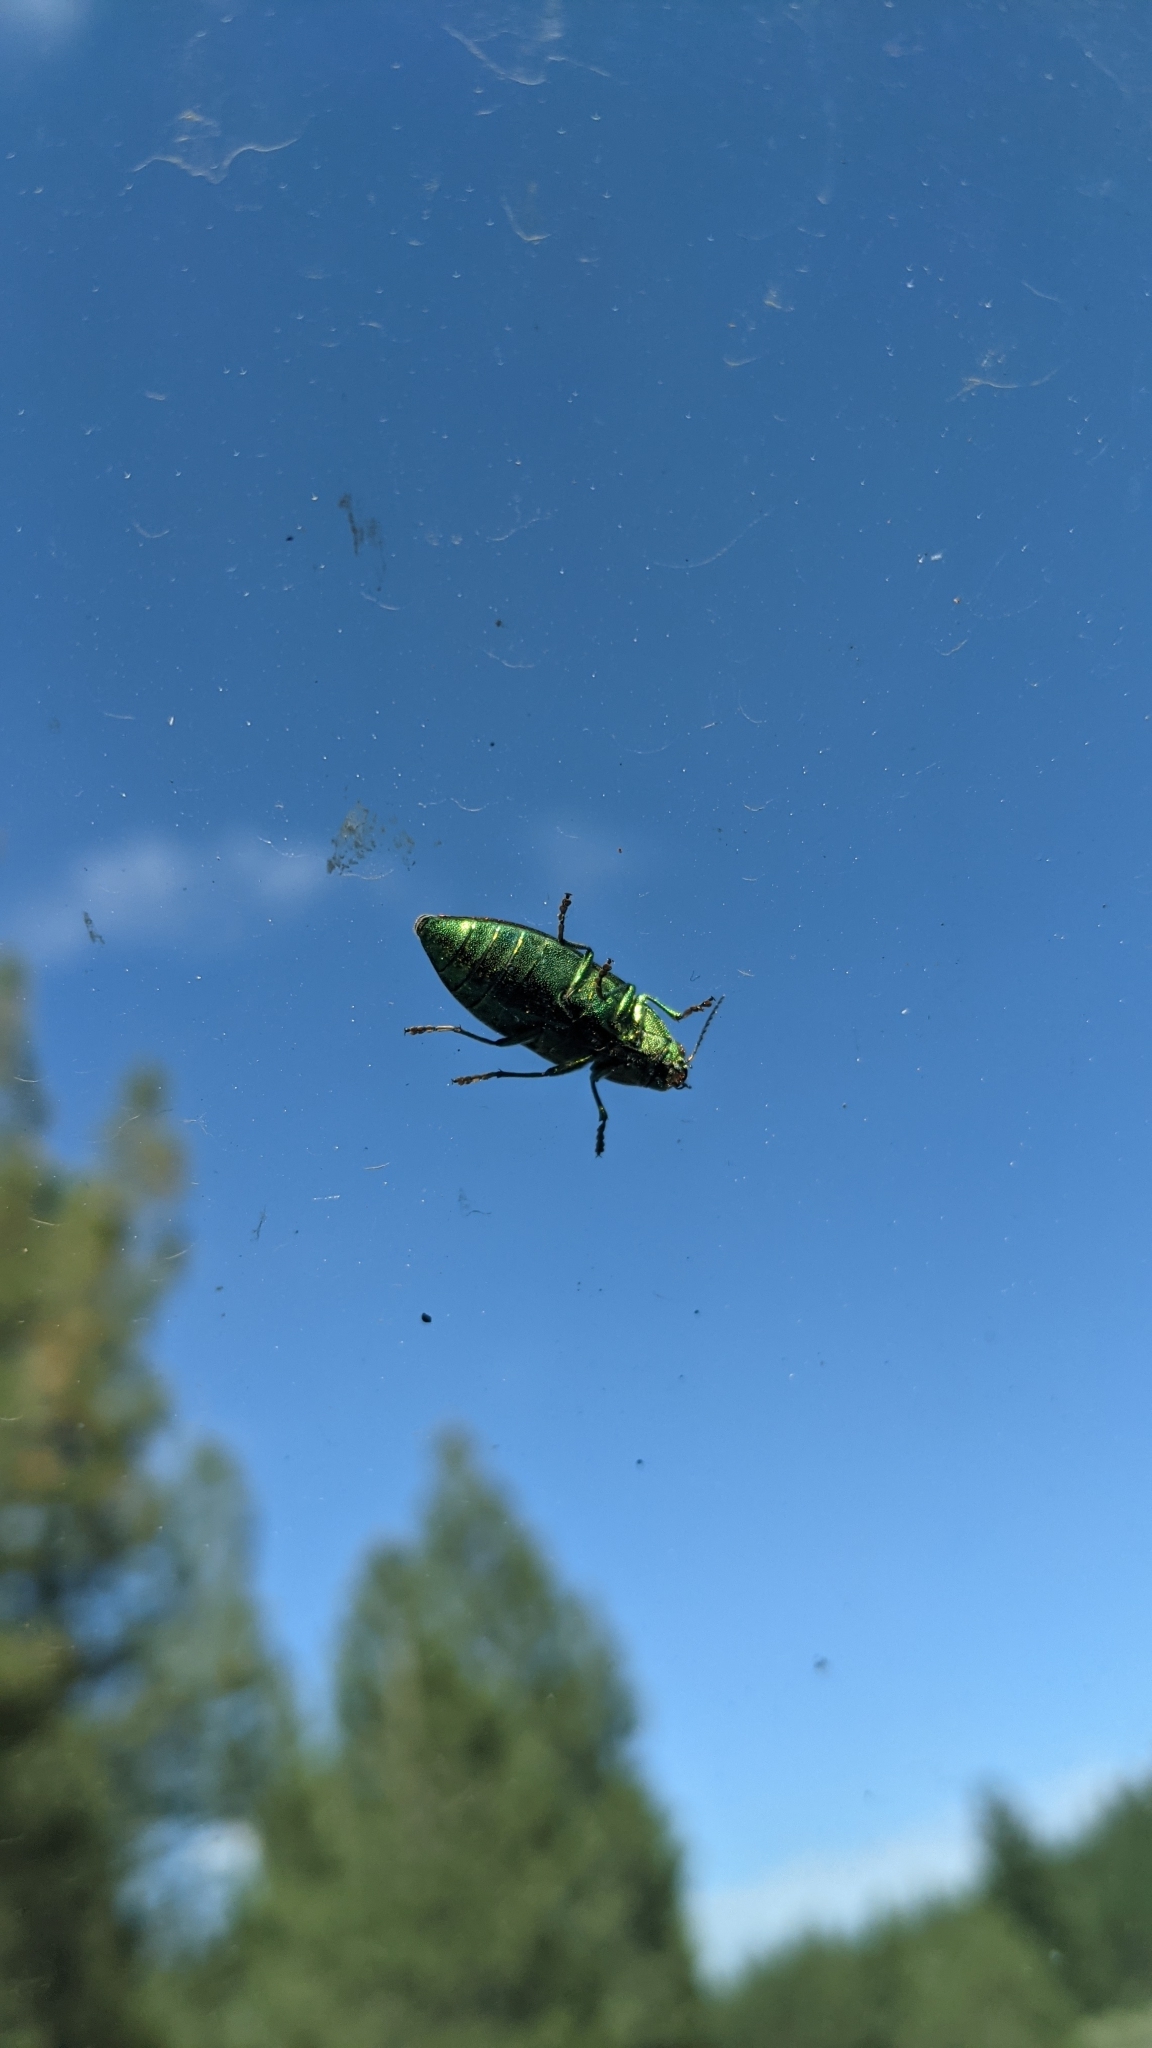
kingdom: Animalia
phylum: Arthropoda
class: Insecta
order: Coleoptera
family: Buprestidae
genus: Buprestis
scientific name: Buprestis aurulenta
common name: Golden buprestid
